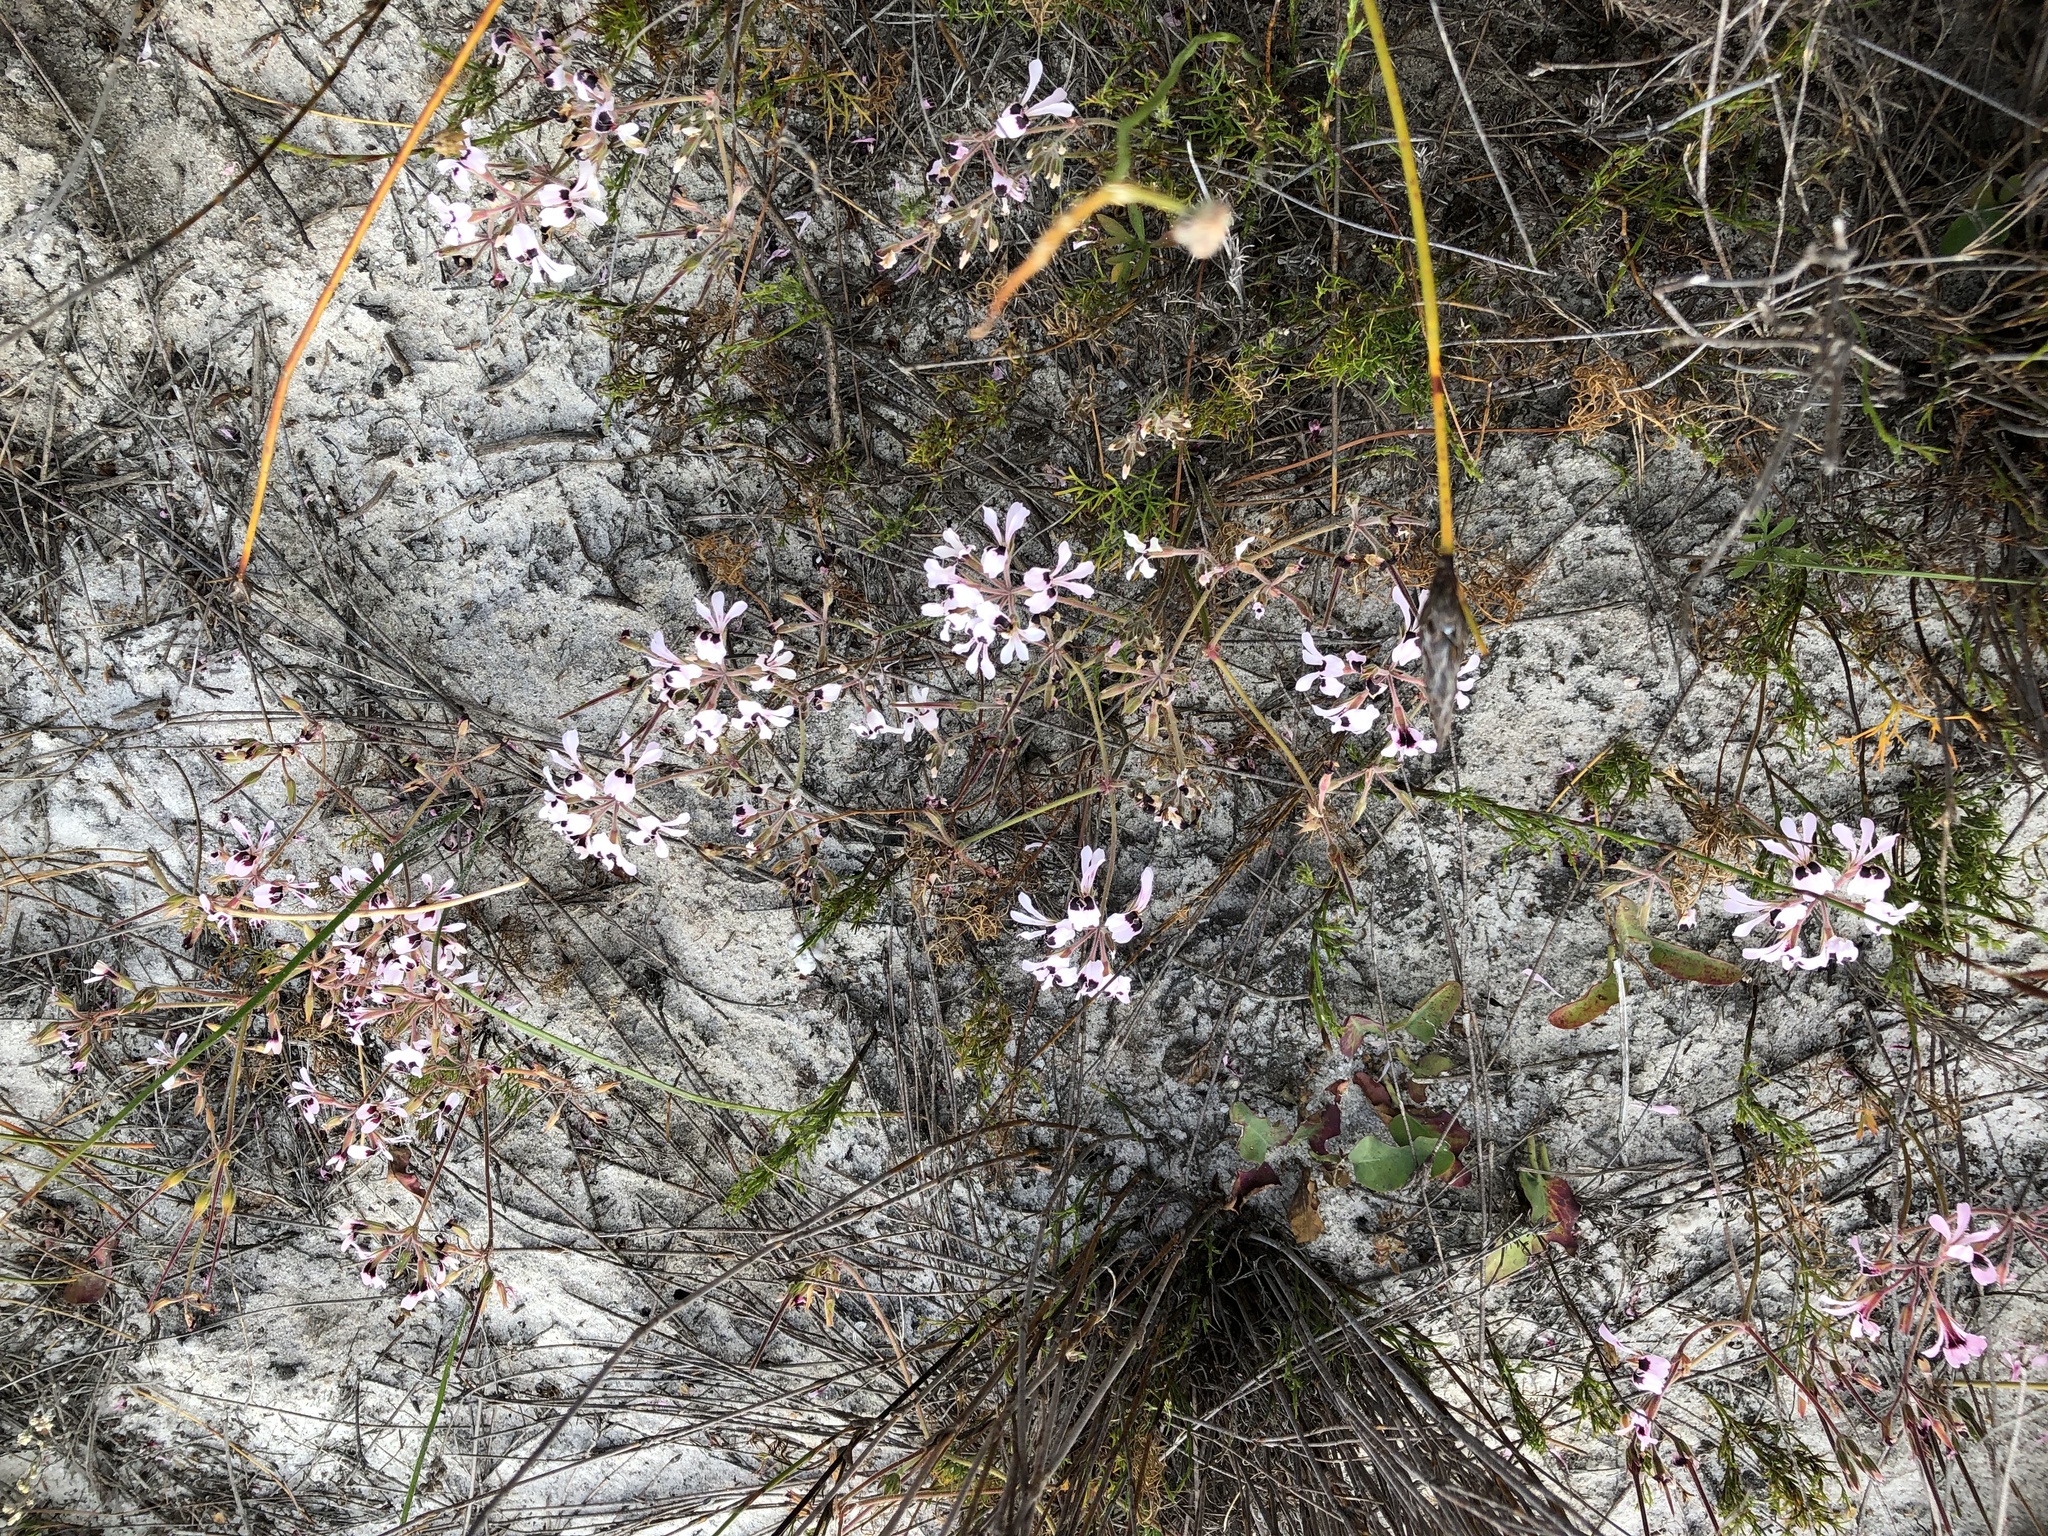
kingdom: Plantae
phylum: Tracheophyta
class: Magnoliopsida
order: Geraniales
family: Geraniaceae
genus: Pelargonium
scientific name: Pelargonium psammophilum
